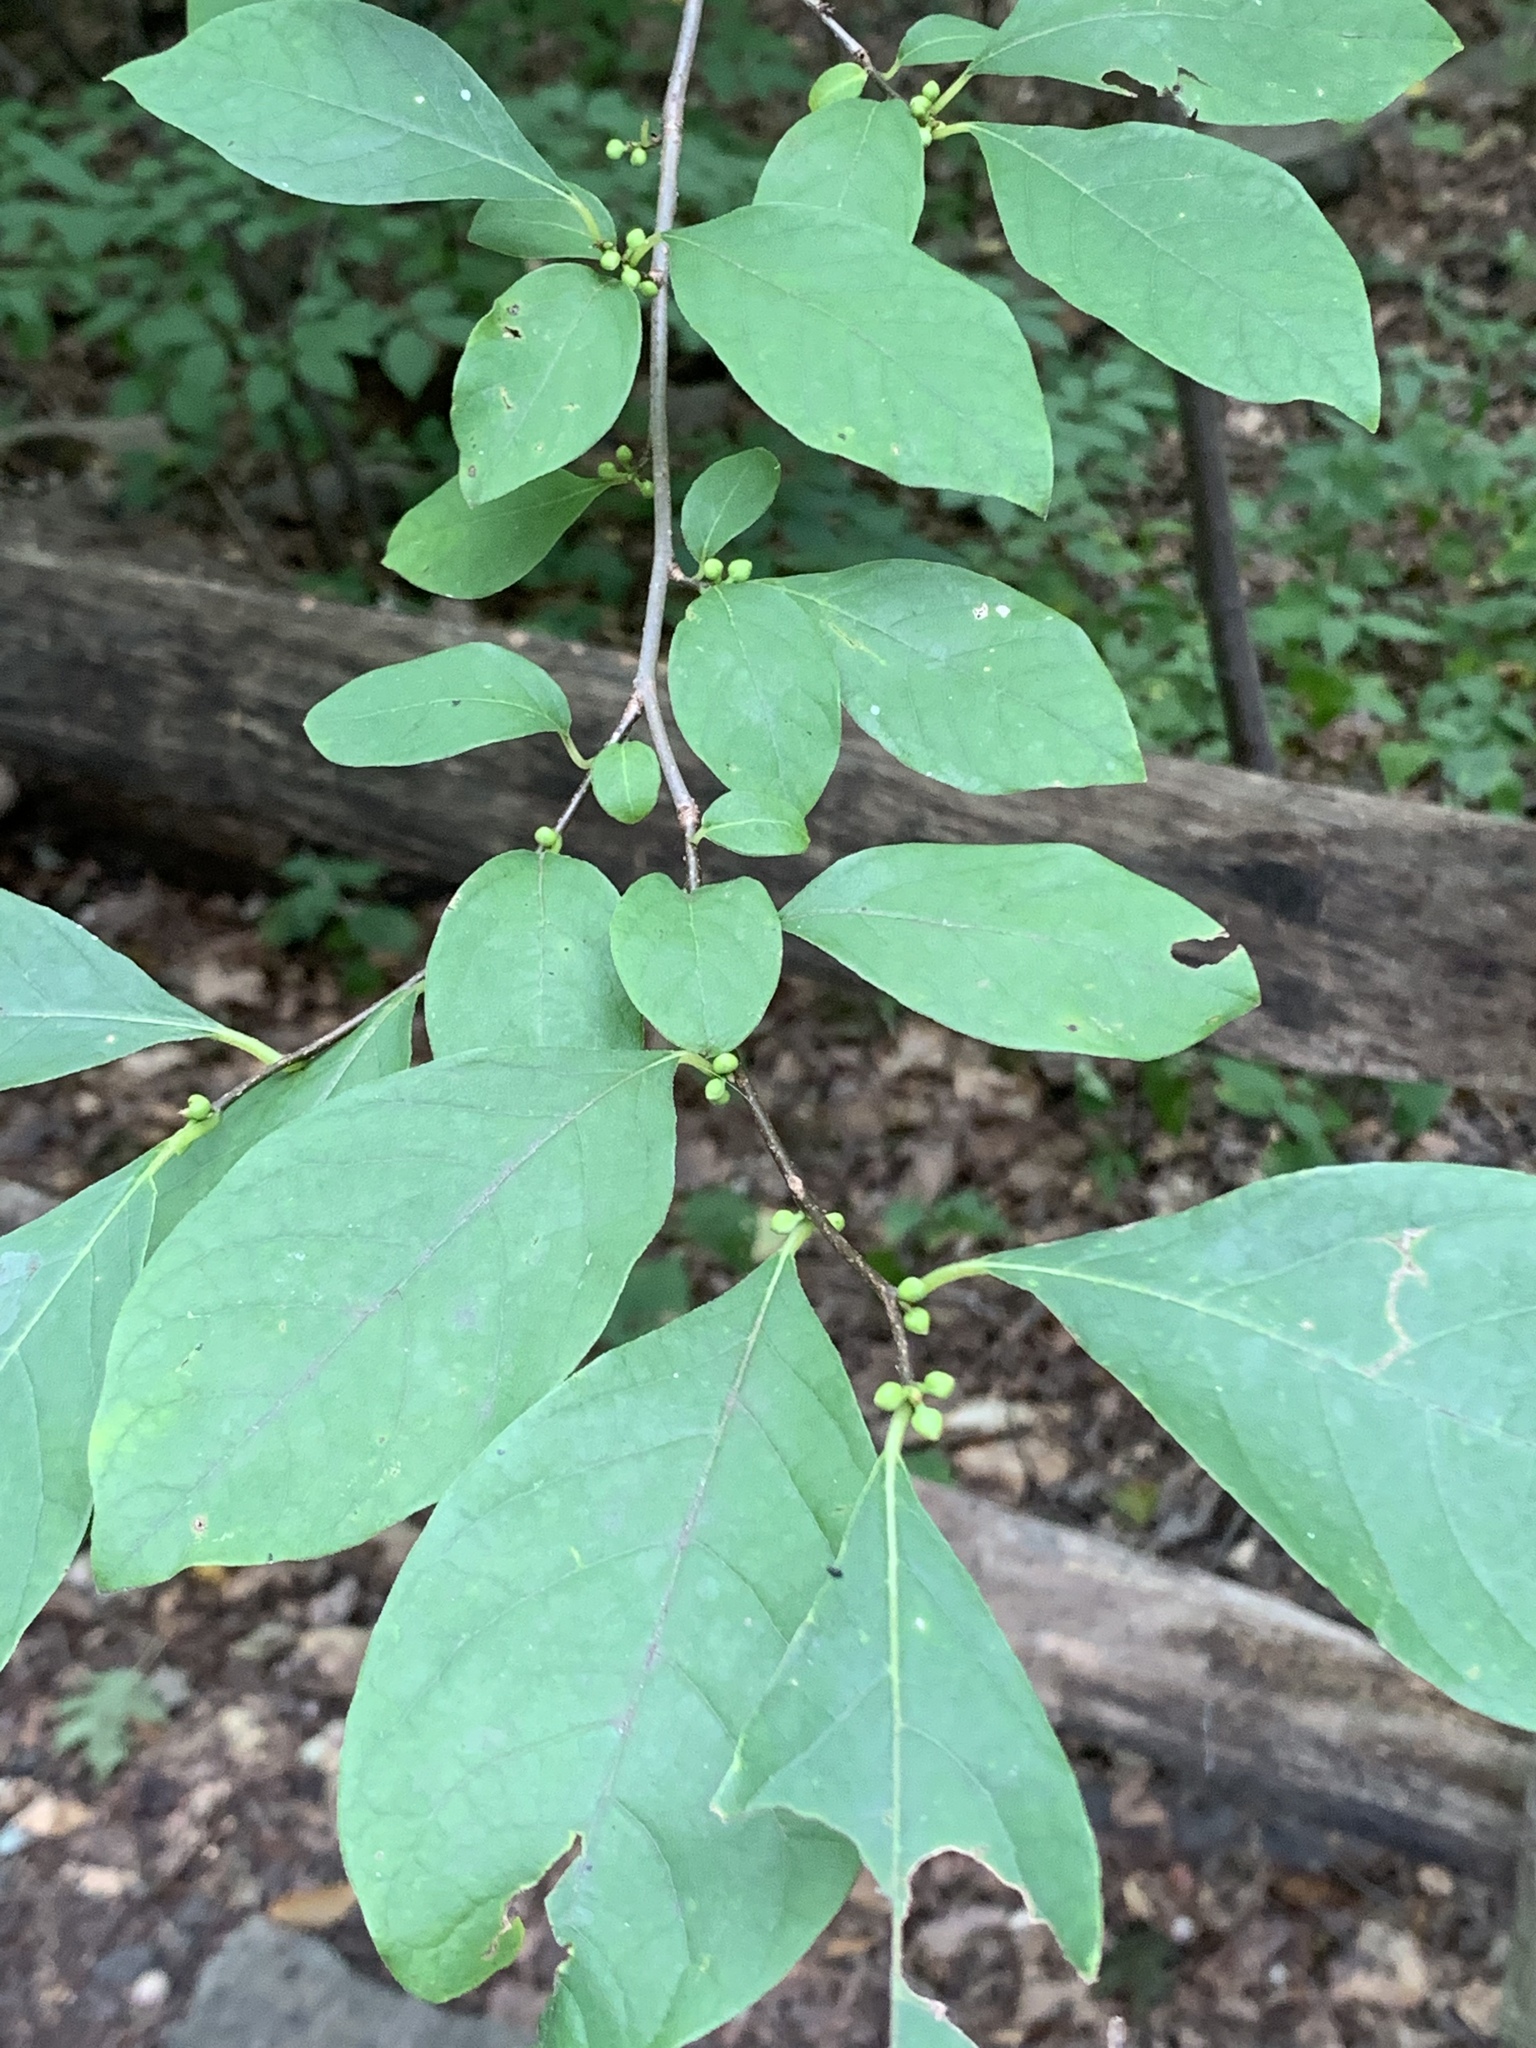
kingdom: Plantae
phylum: Tracheophyta
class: Magnoliopsida
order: Laurales
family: Lauraceae
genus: Lindera
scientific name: Lindera benzoin
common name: Spicebush
